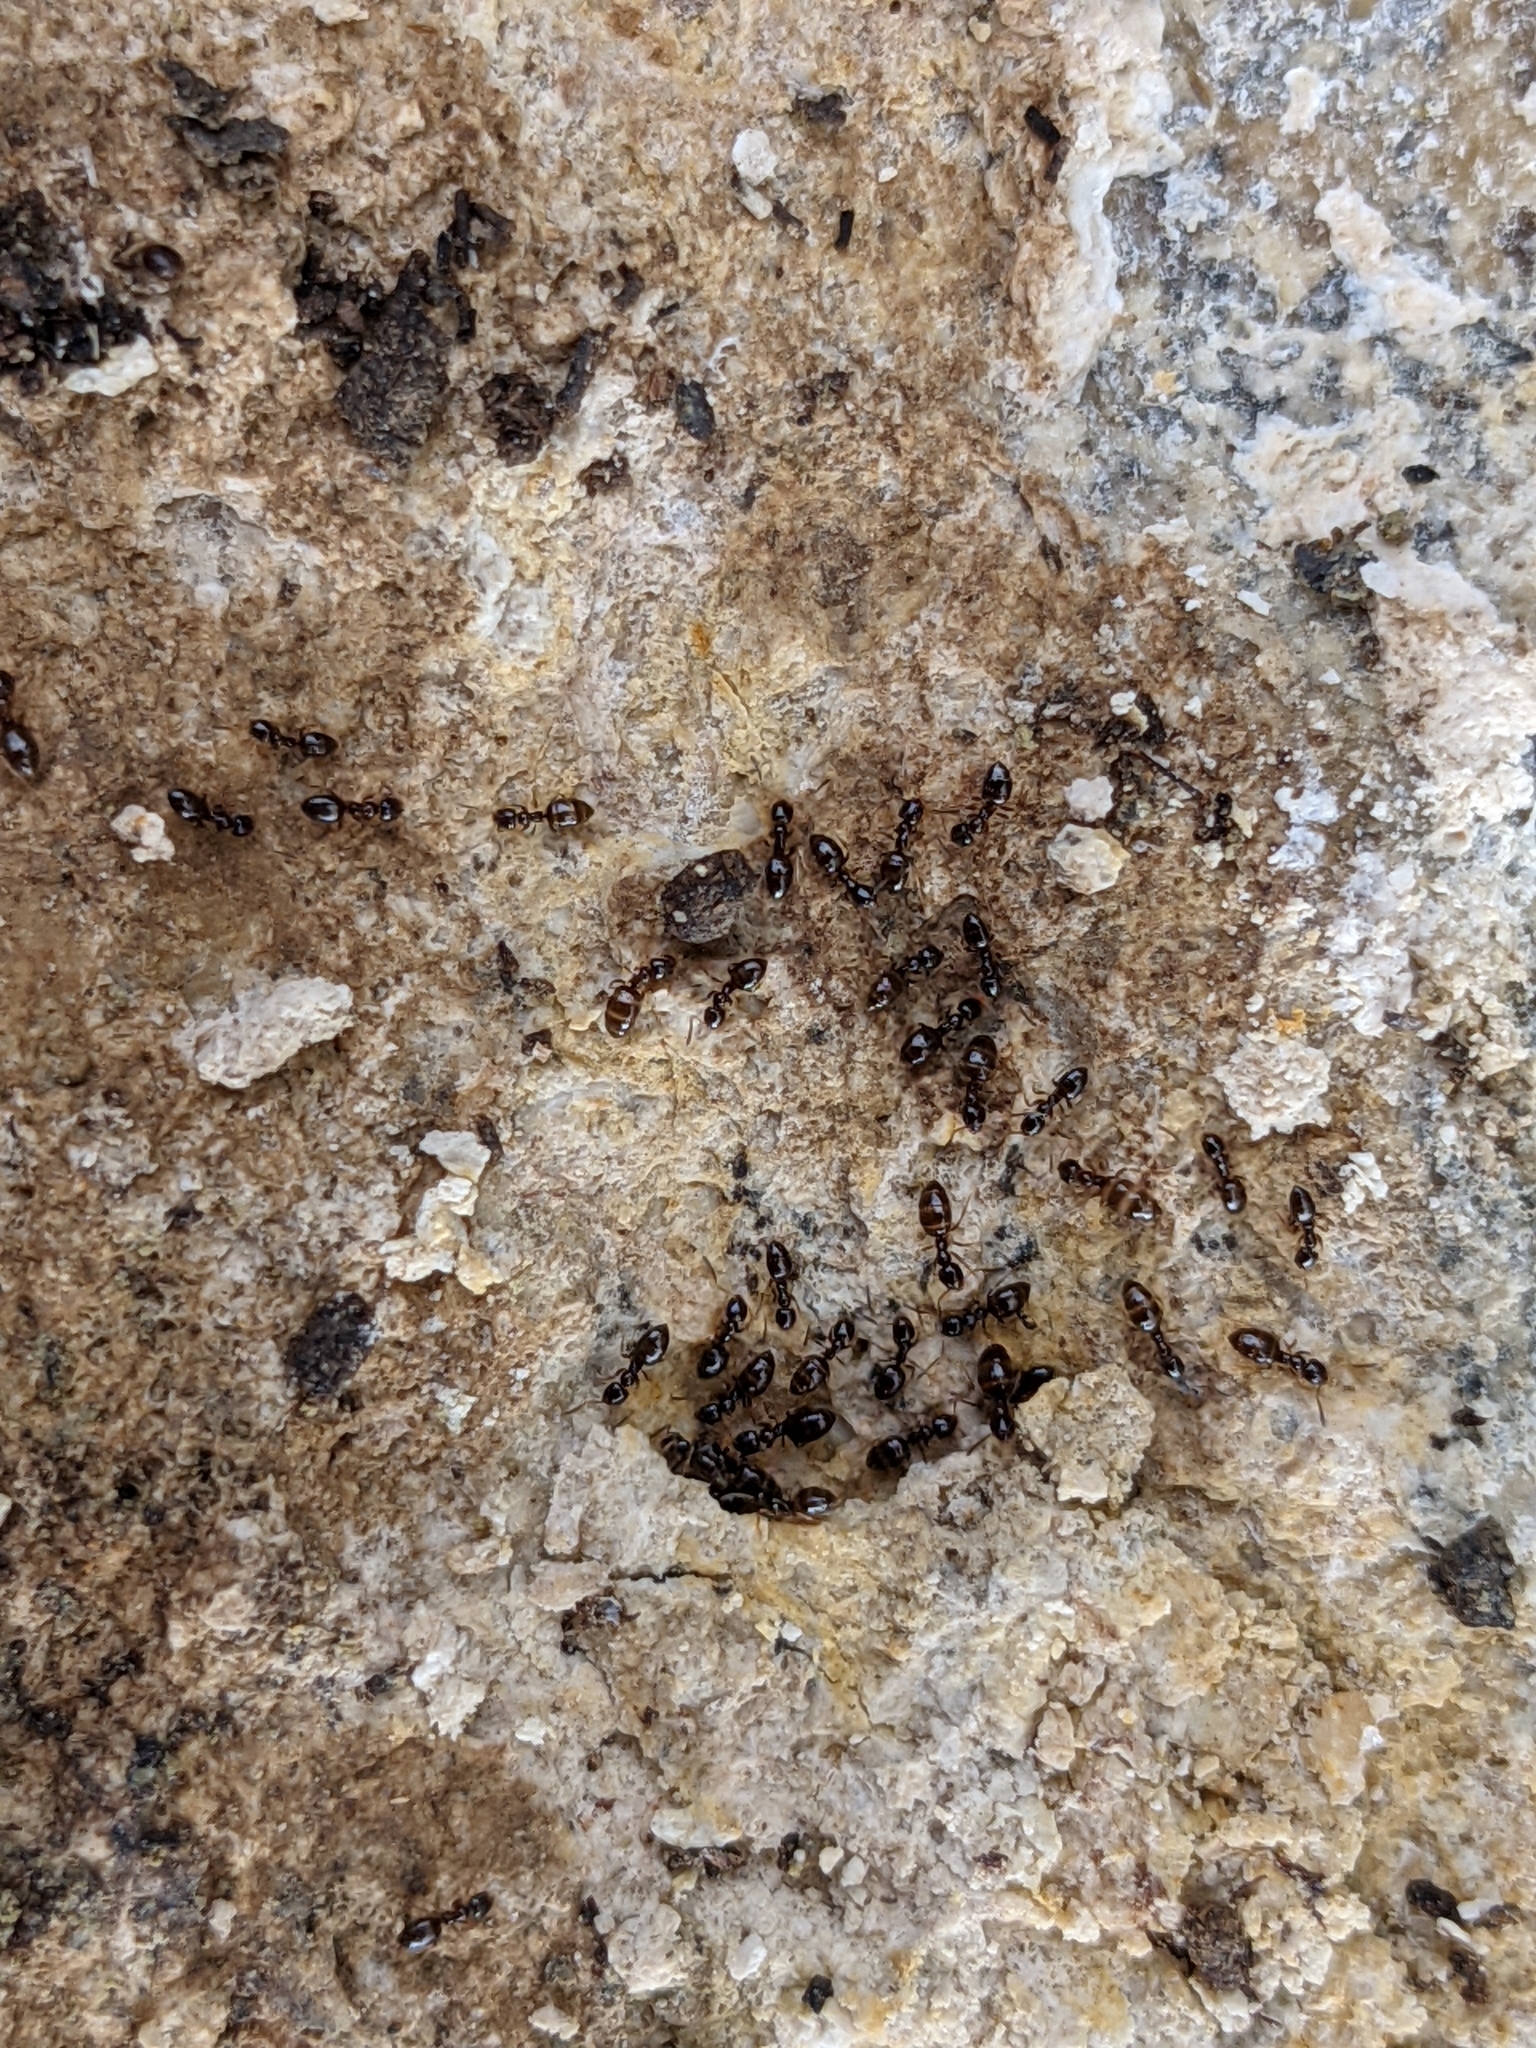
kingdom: Animalia
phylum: Arthropoda
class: Insecta
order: Hymenoptera
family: Formicidae
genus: Plagiolepis
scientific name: Plagiolepis pygmaea
